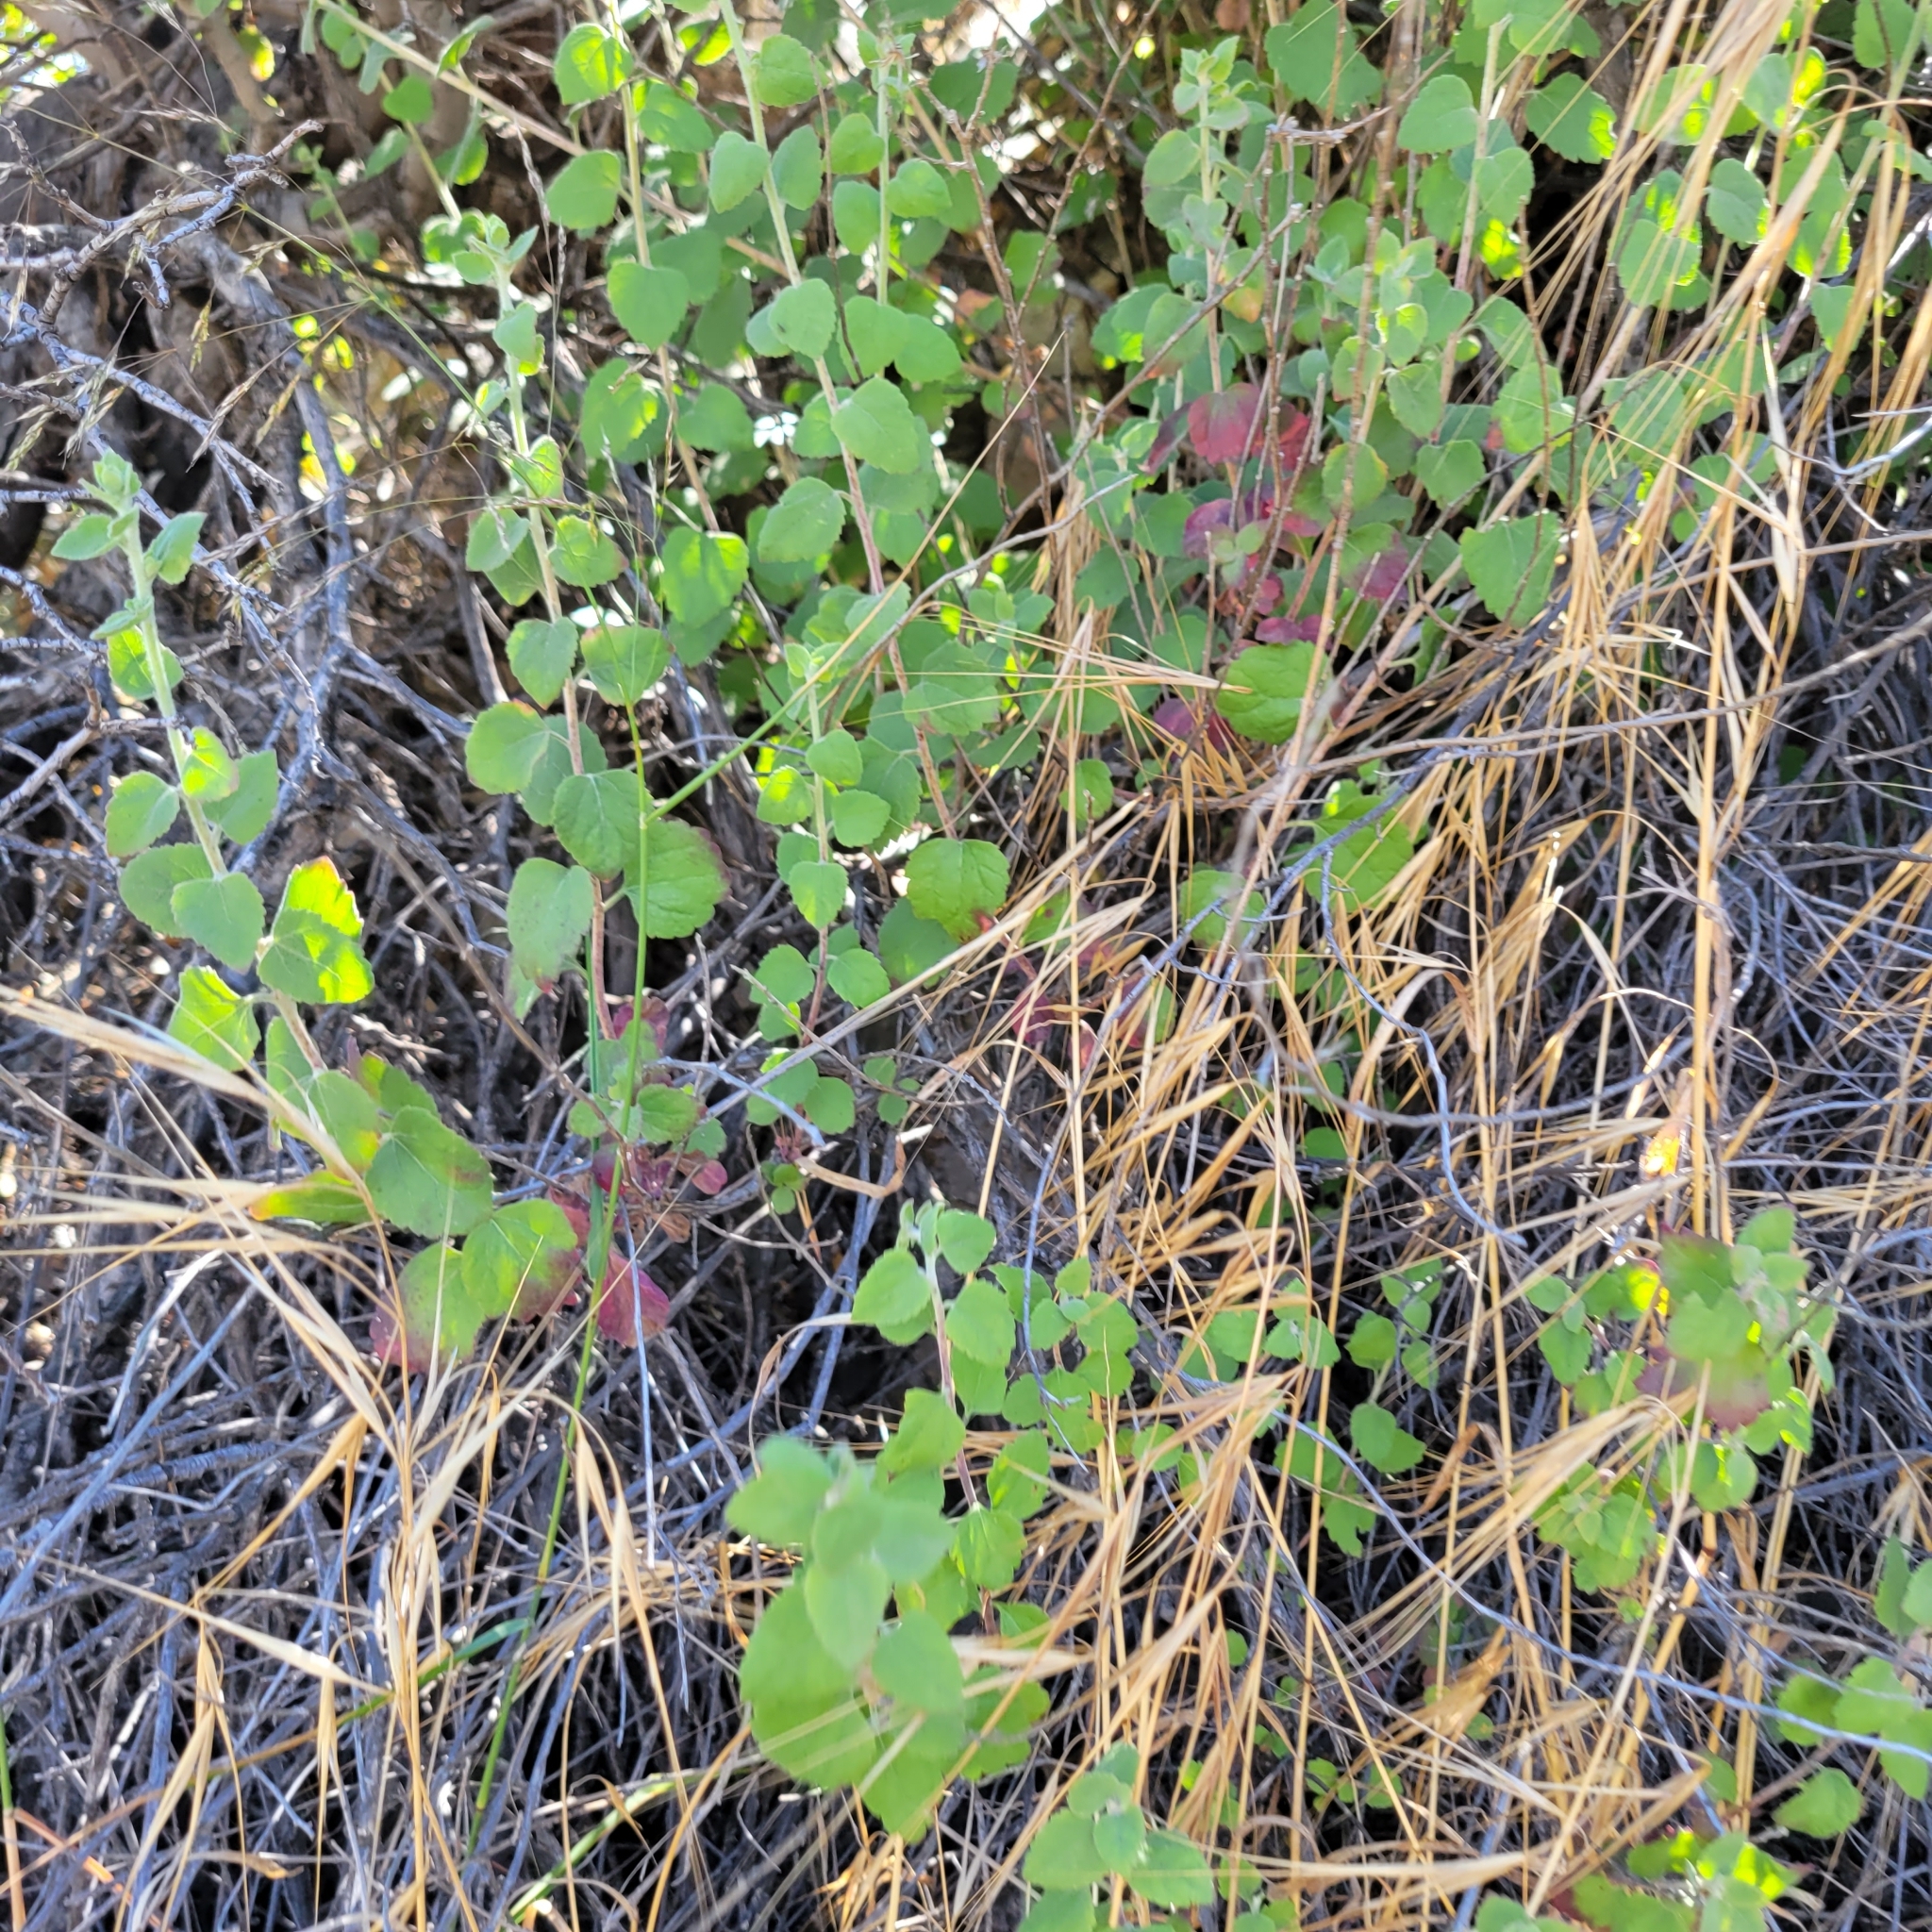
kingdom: Plantae
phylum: Tracheophyta
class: Magnoliopsida
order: Asterales
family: Asteraceae
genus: Brickellia
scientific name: Brickellia californica
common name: California brickellbush
